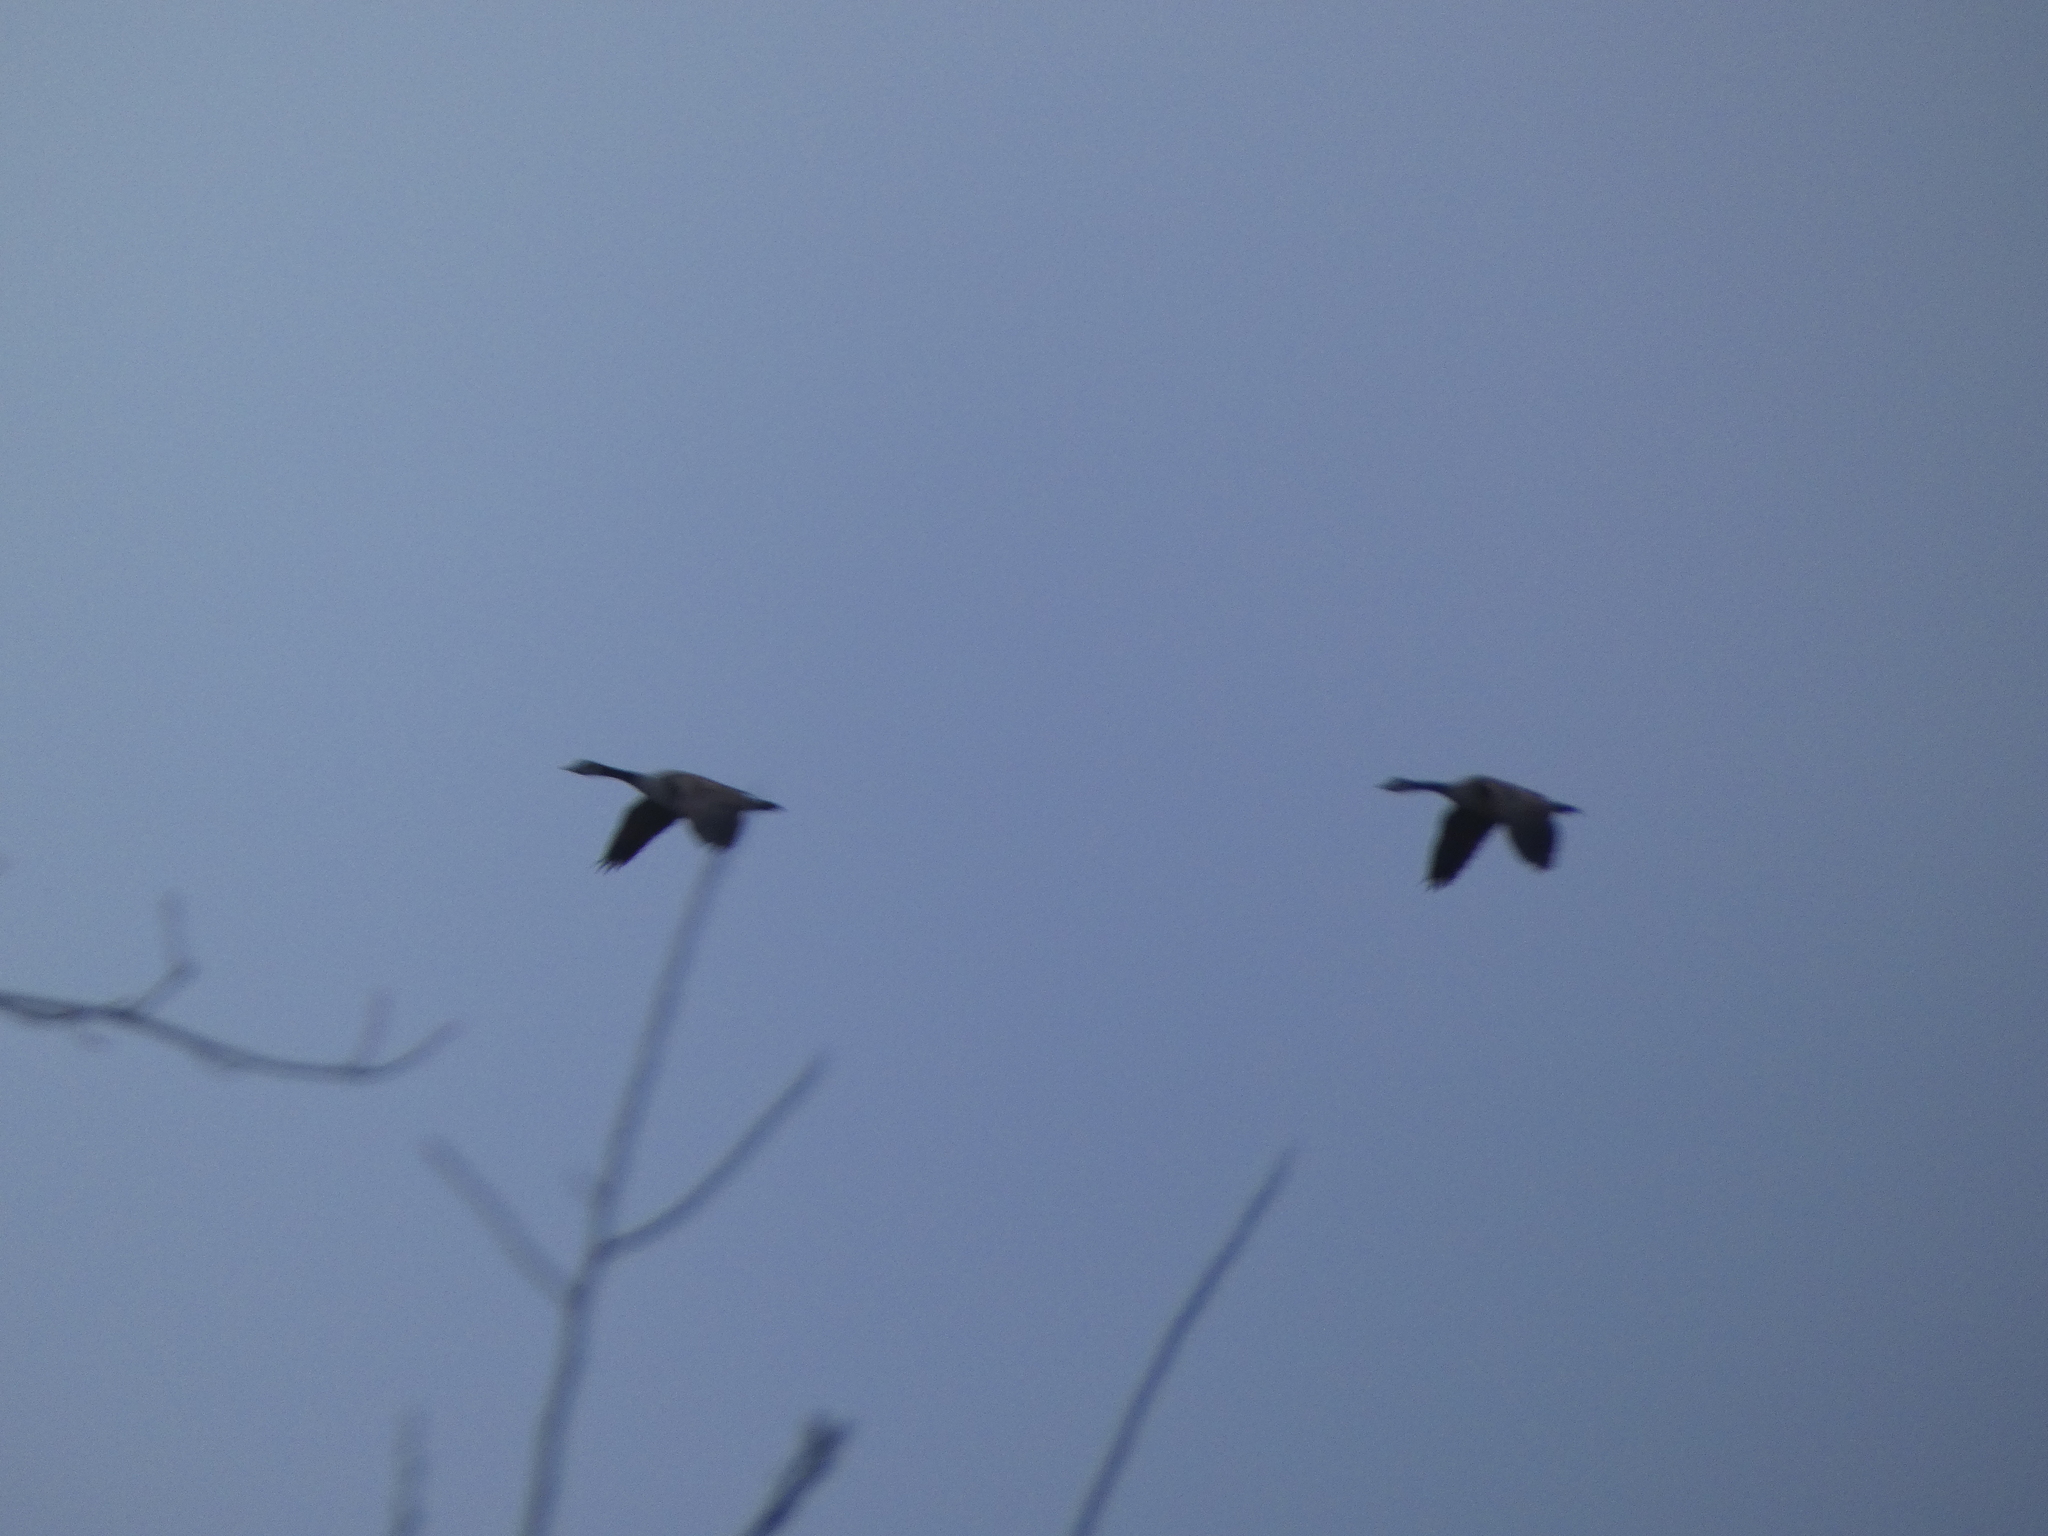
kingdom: Animalia
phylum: Chordata
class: Aves
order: Anseriformes
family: Anatidae
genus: Branta
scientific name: Branta canadensis
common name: Canada goose
